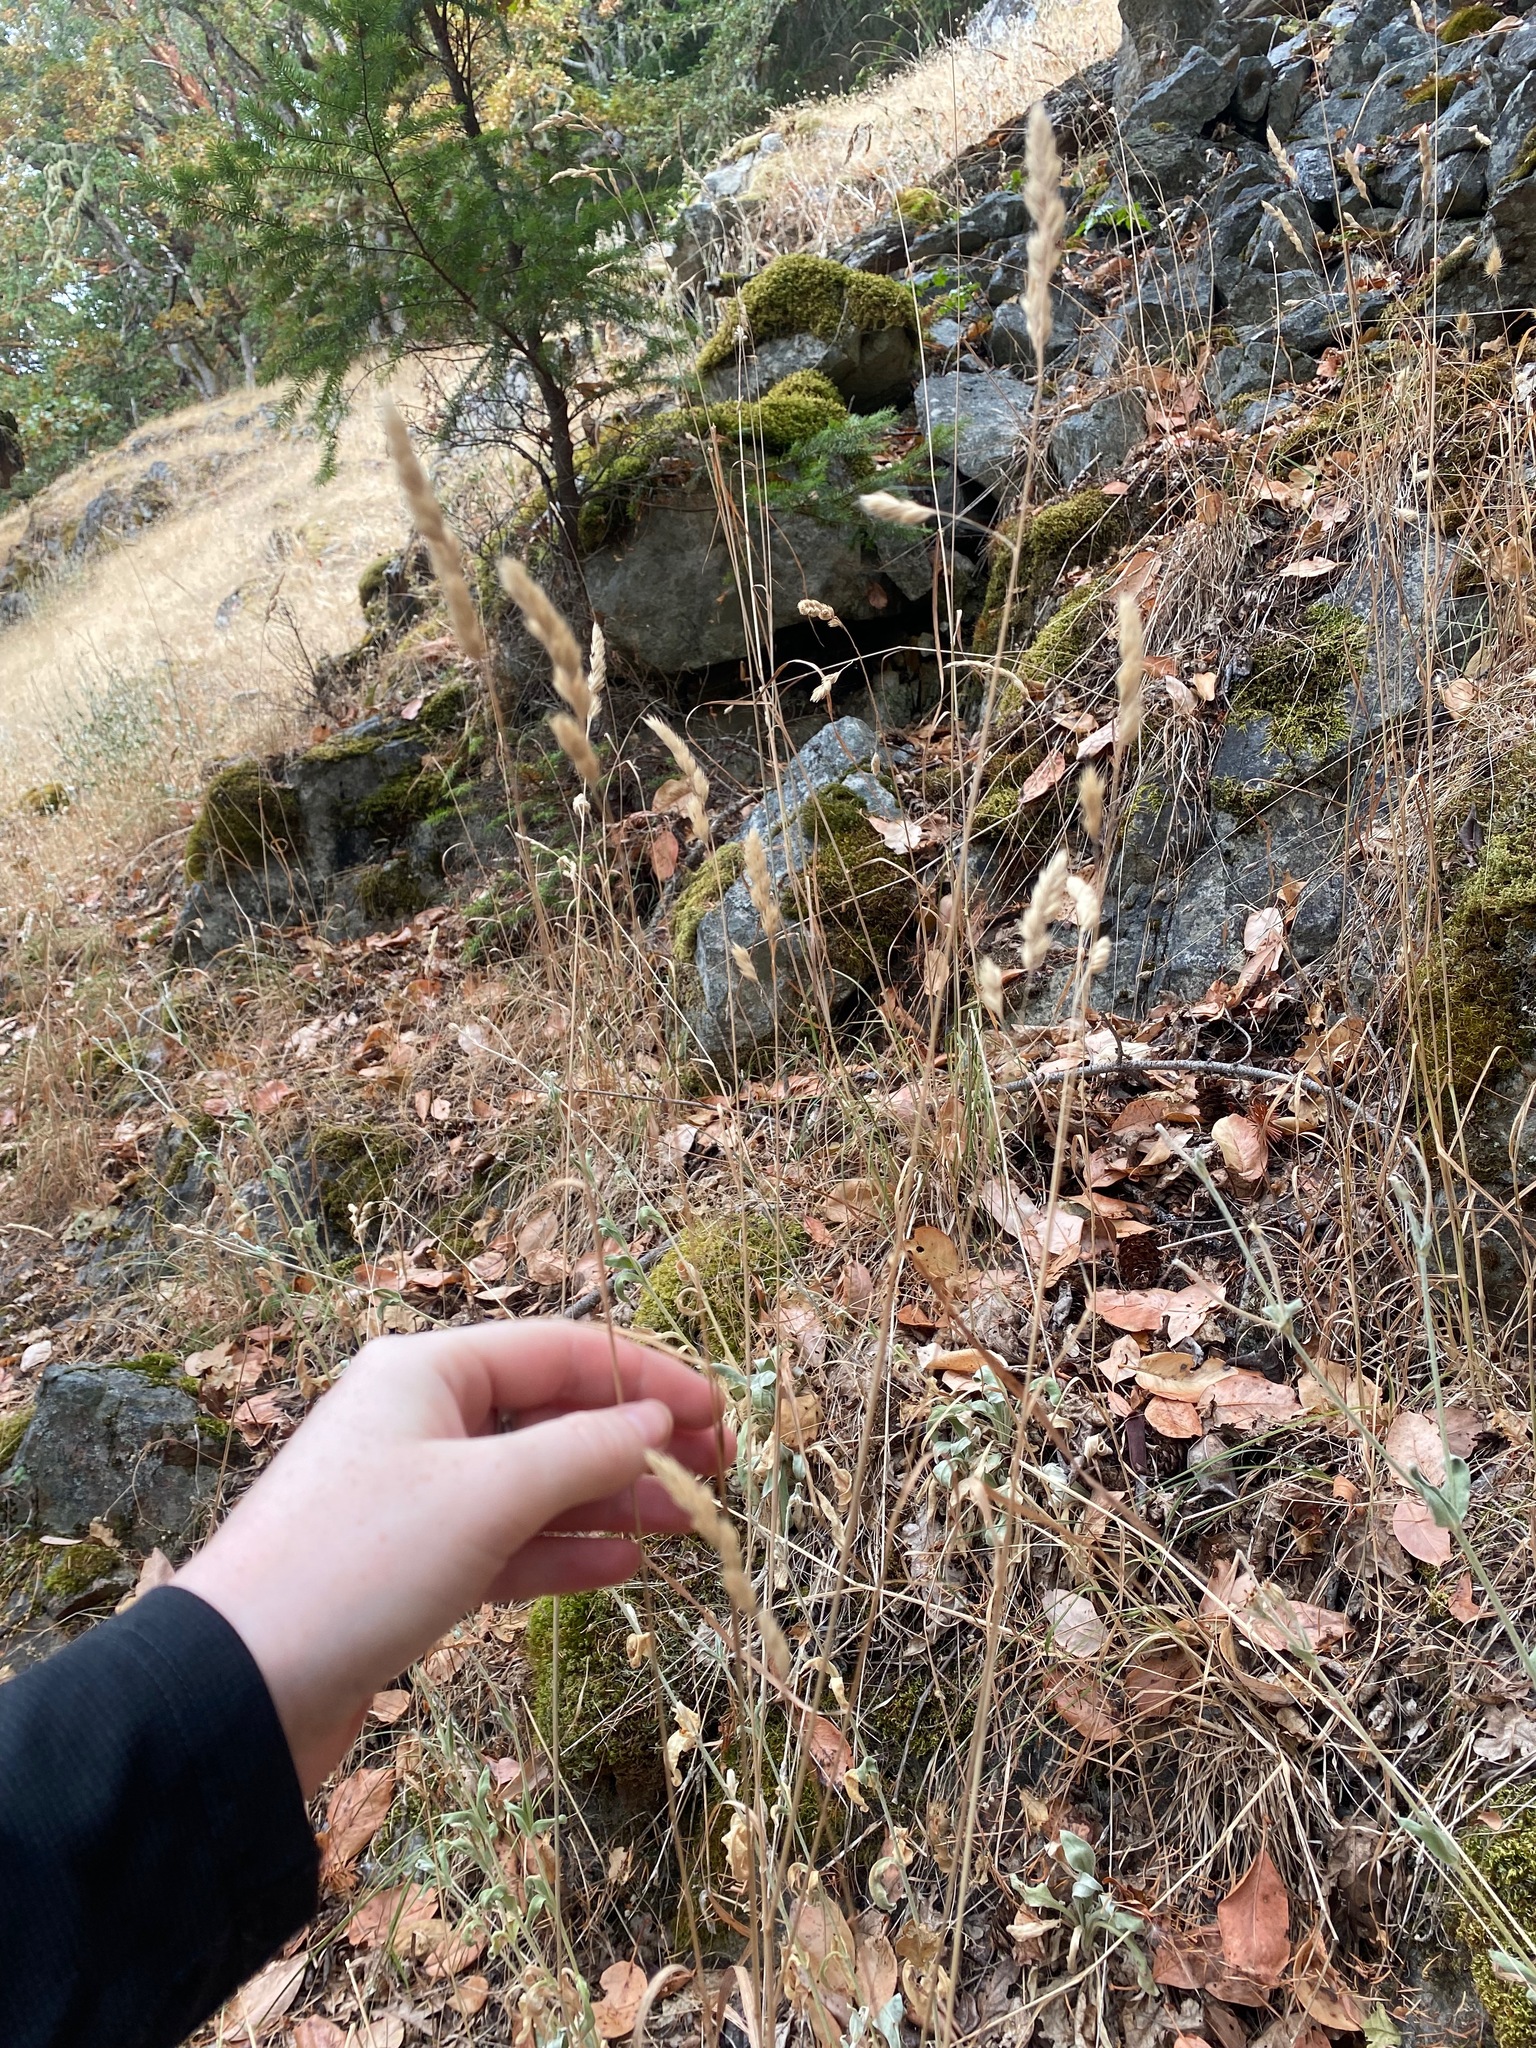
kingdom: Plantae
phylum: Tracheophyta
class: Liliopsida
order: Poales
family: Poaceae
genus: Dactylis
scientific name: Dactylis glomerata
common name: Orchardgrass
